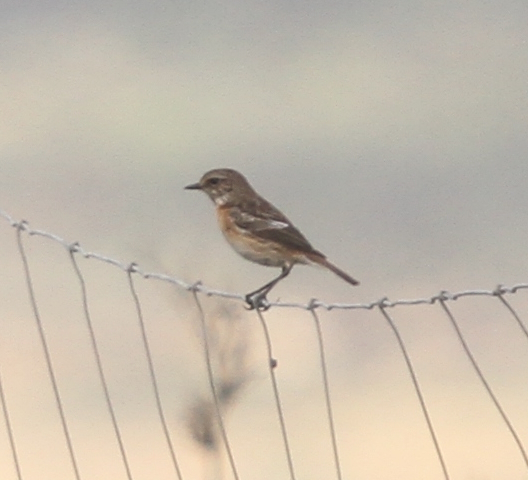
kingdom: Animalia
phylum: Chordata
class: Aves
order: Passeriformes
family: Muscicapidae
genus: Saxicola
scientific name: Saxicola rubicola
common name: European stonechat
